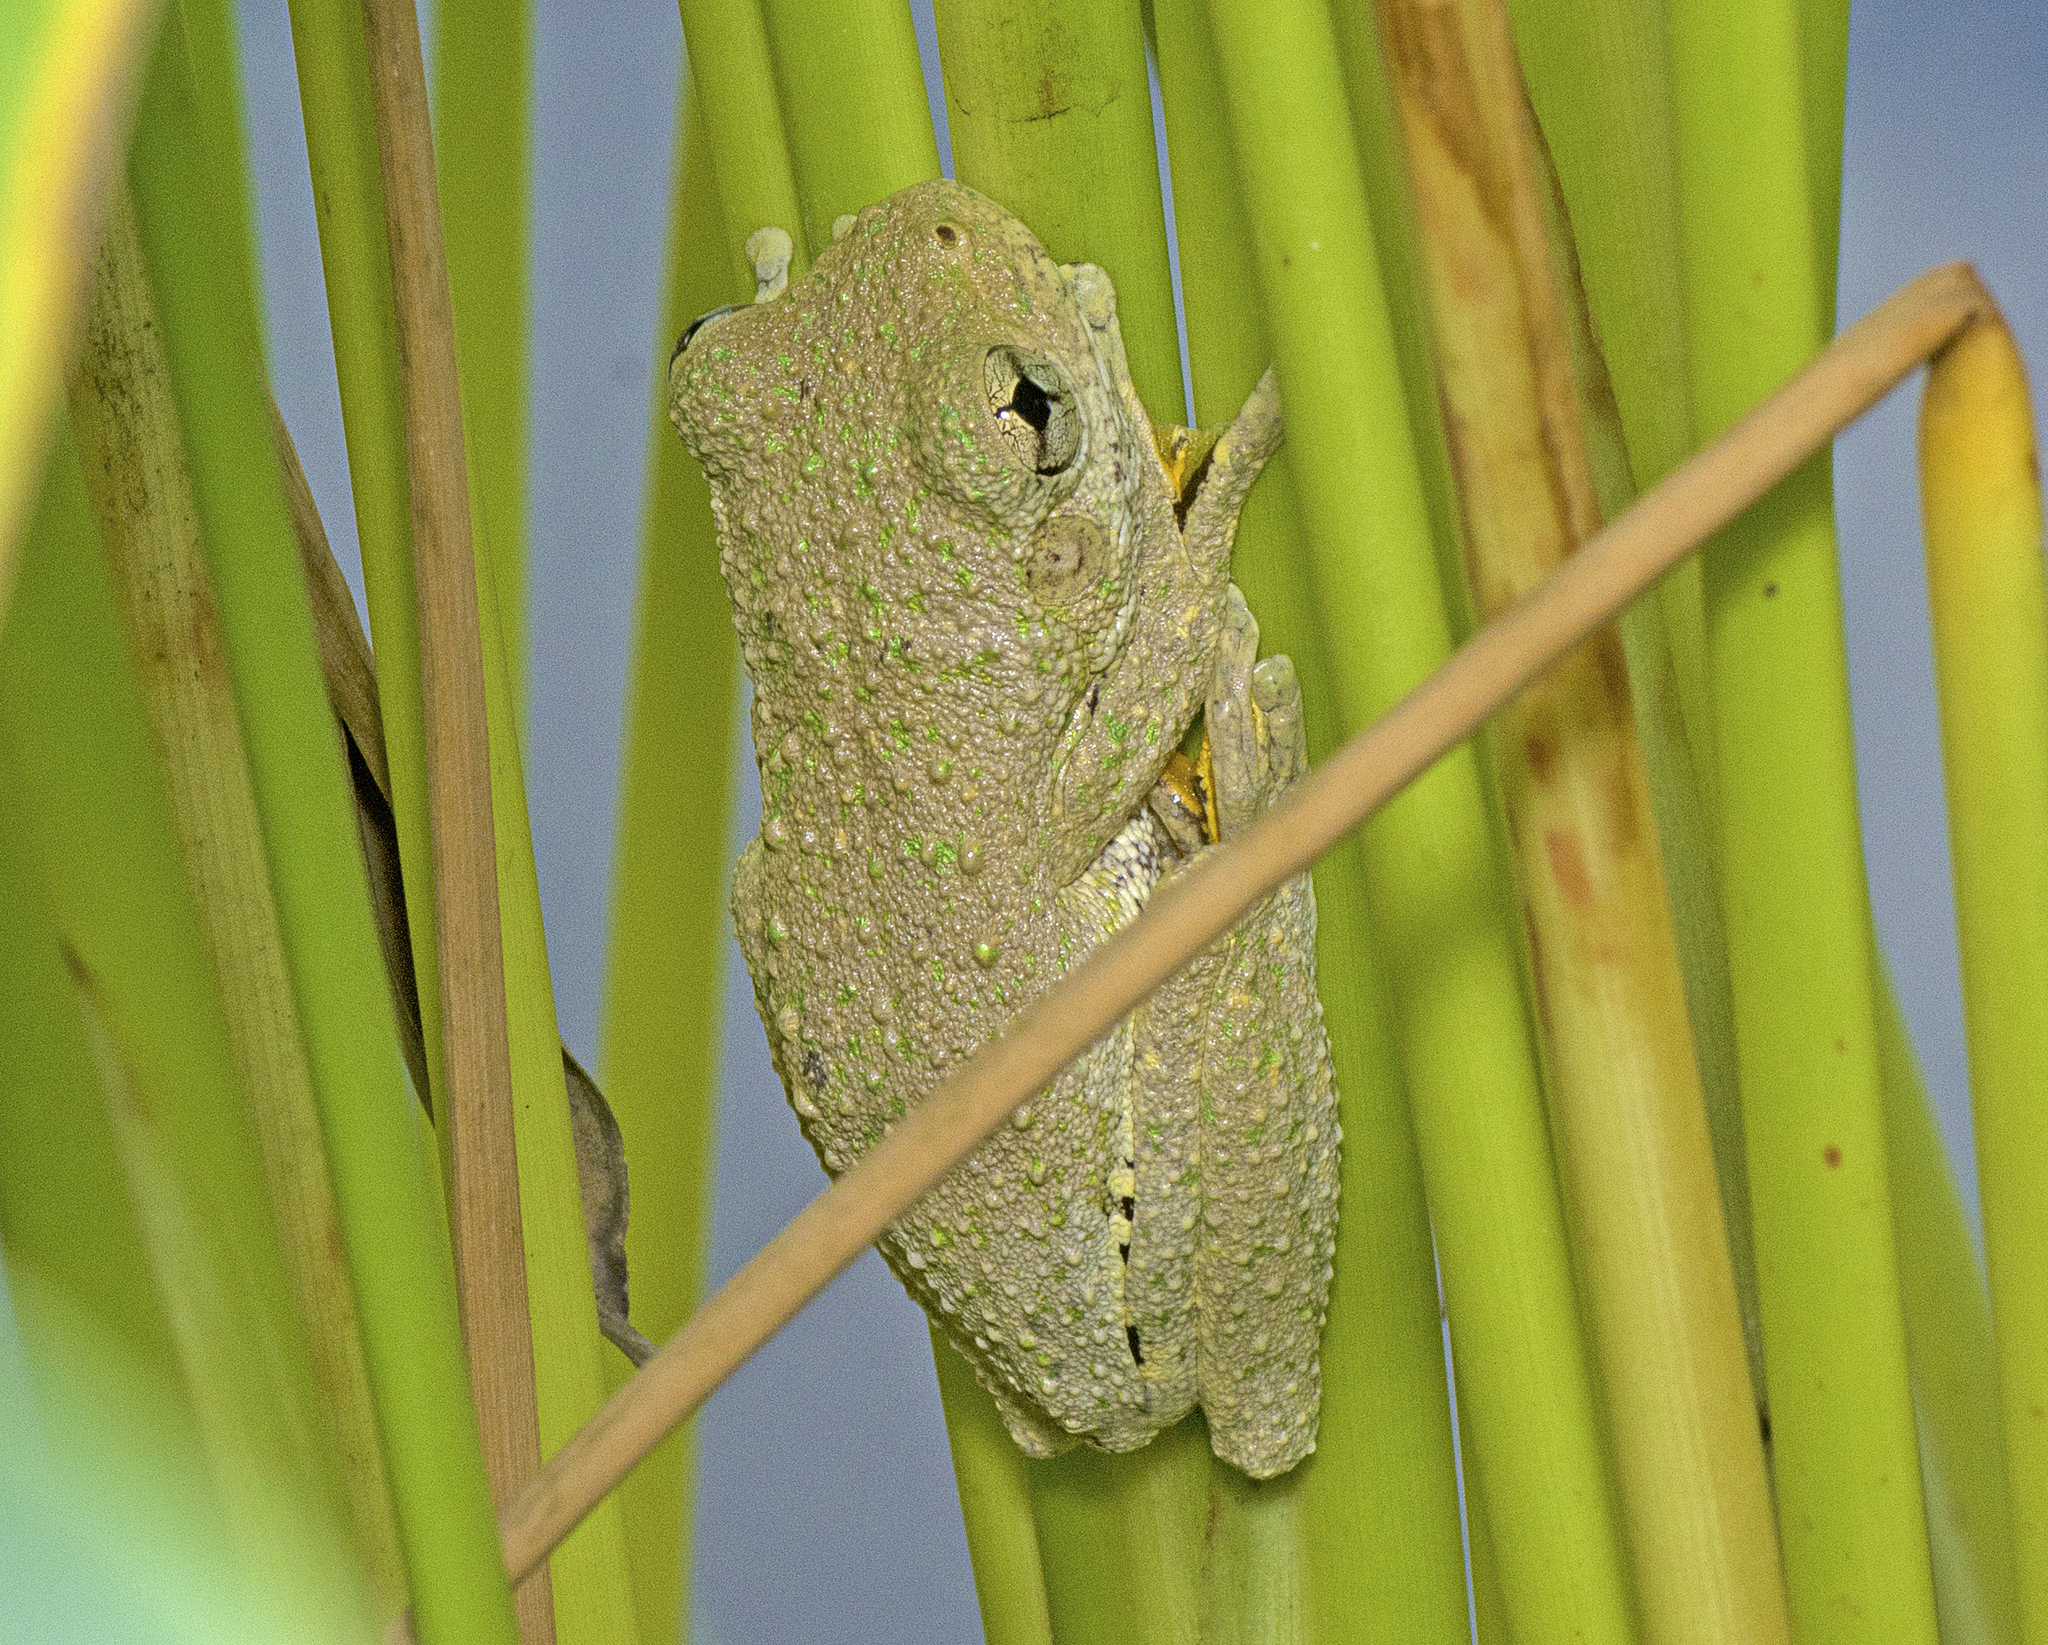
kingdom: Animalia
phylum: Chordata
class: Amphibia
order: Anura
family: Pelodryadidae
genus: Litoria
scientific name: Litoria peronii
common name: Emerald spotted treefrog
